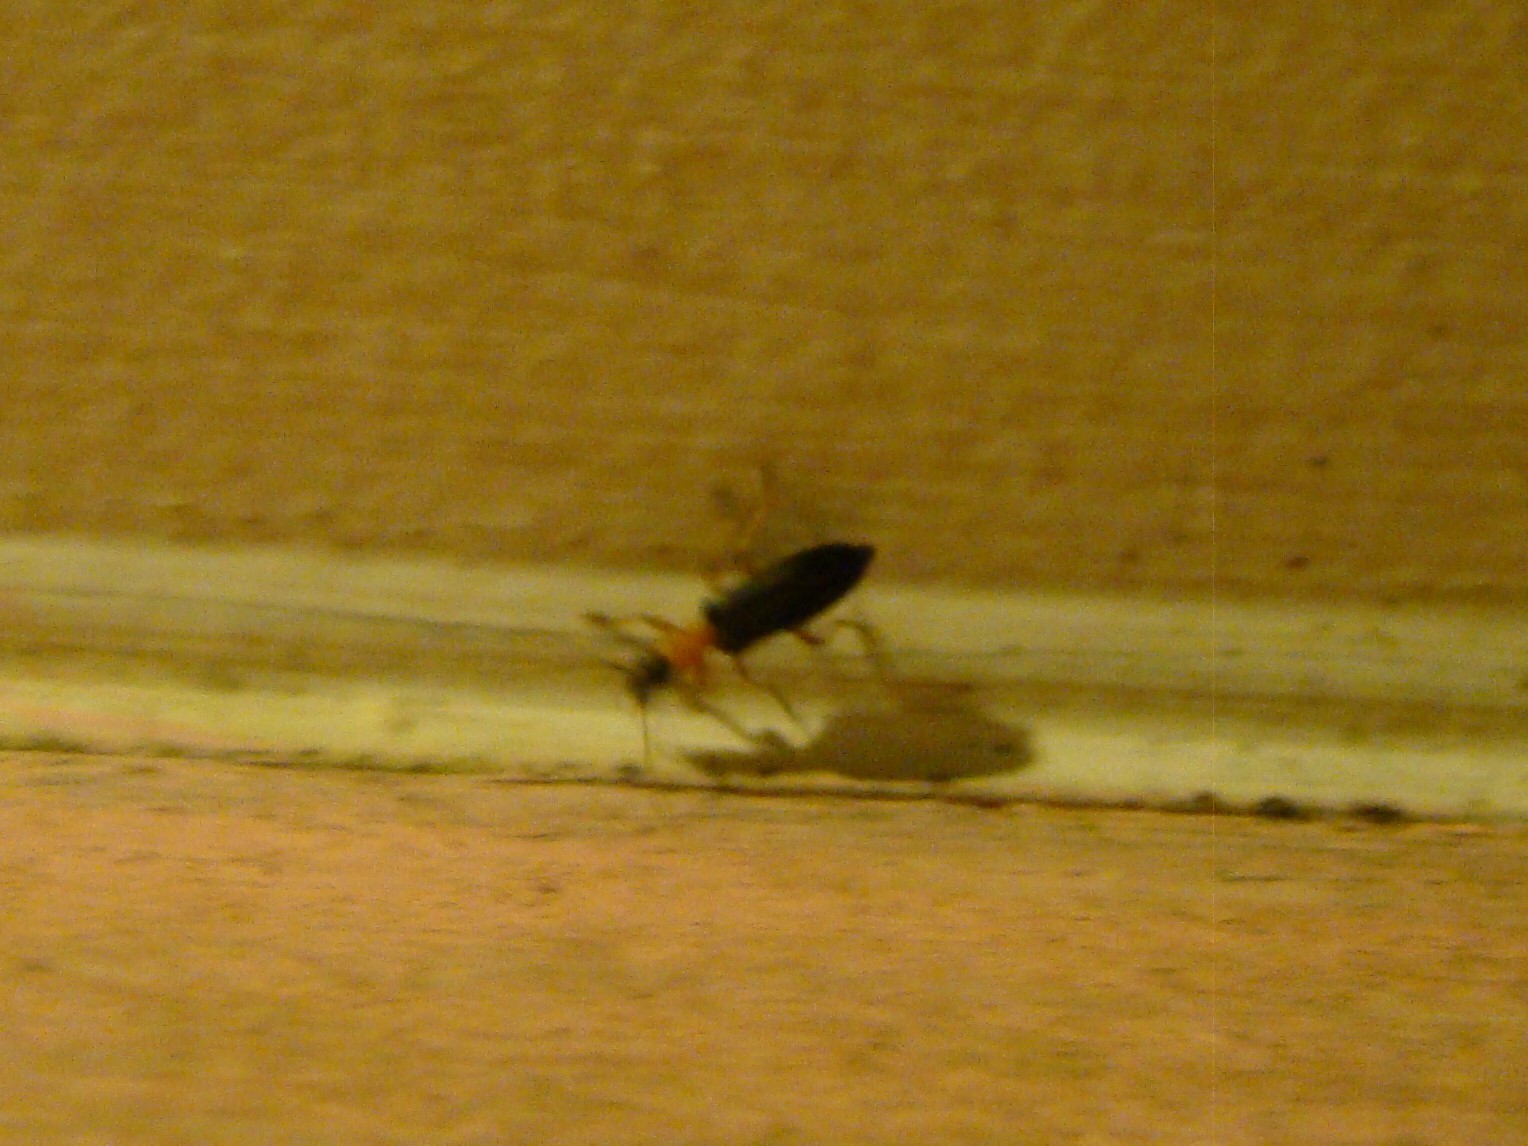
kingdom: Animalia
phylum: Arthropoda
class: Insecta
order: Coleoptera
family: Oedemeridae
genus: Ananca
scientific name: Ananca bicolor
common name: Red-black false blister-beetle
